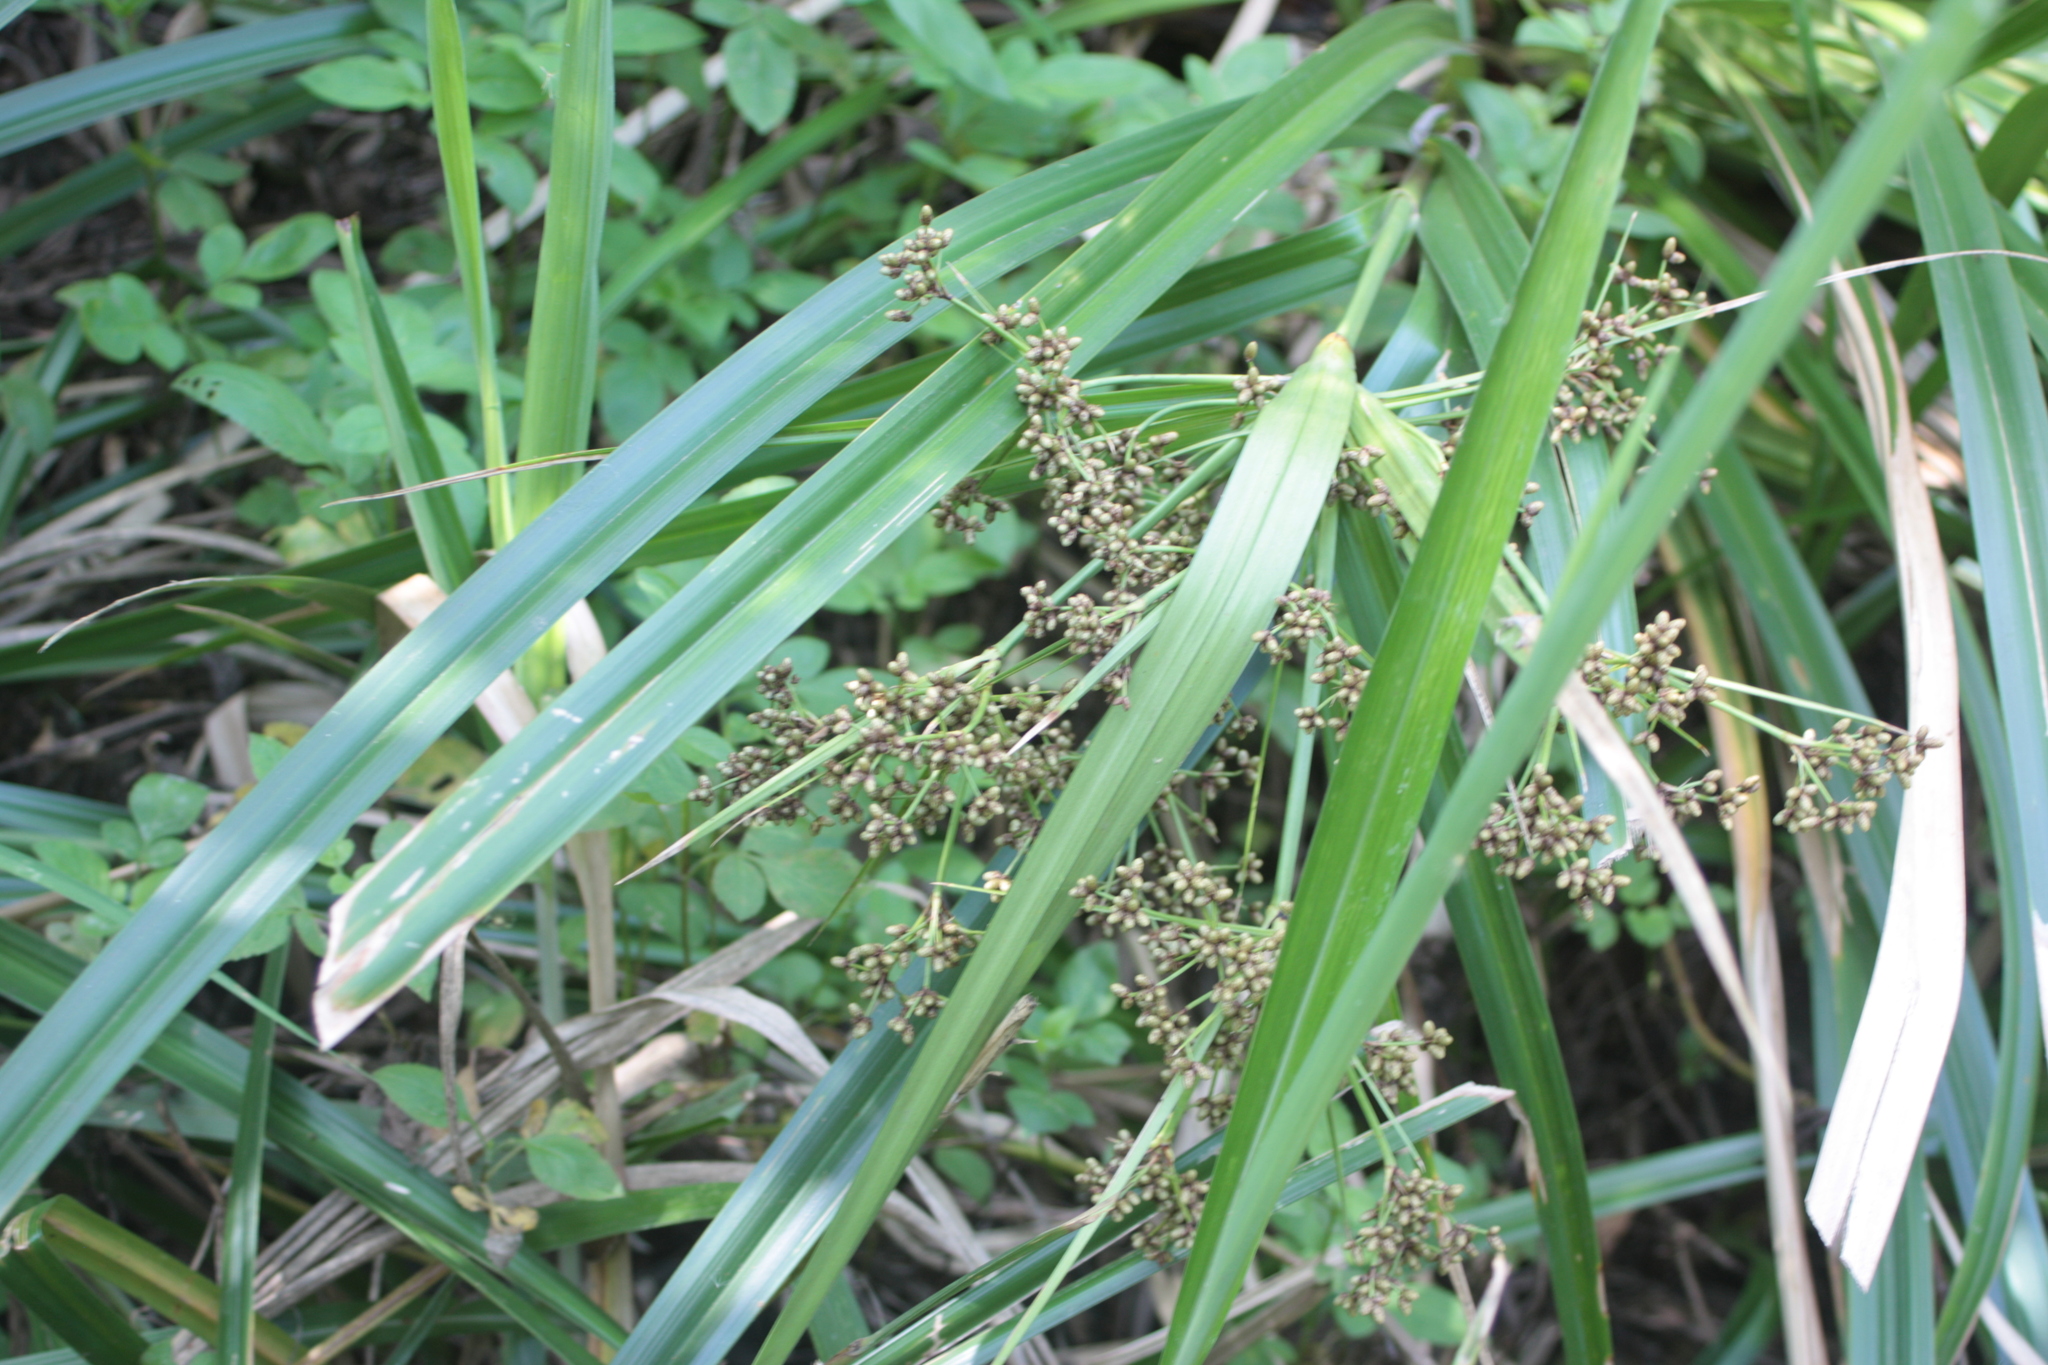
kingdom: Plantae
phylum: Tracheophyta
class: Liliopsida
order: Poales
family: Cyperaceae
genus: Scirpus
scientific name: Scirpus ternatanus
